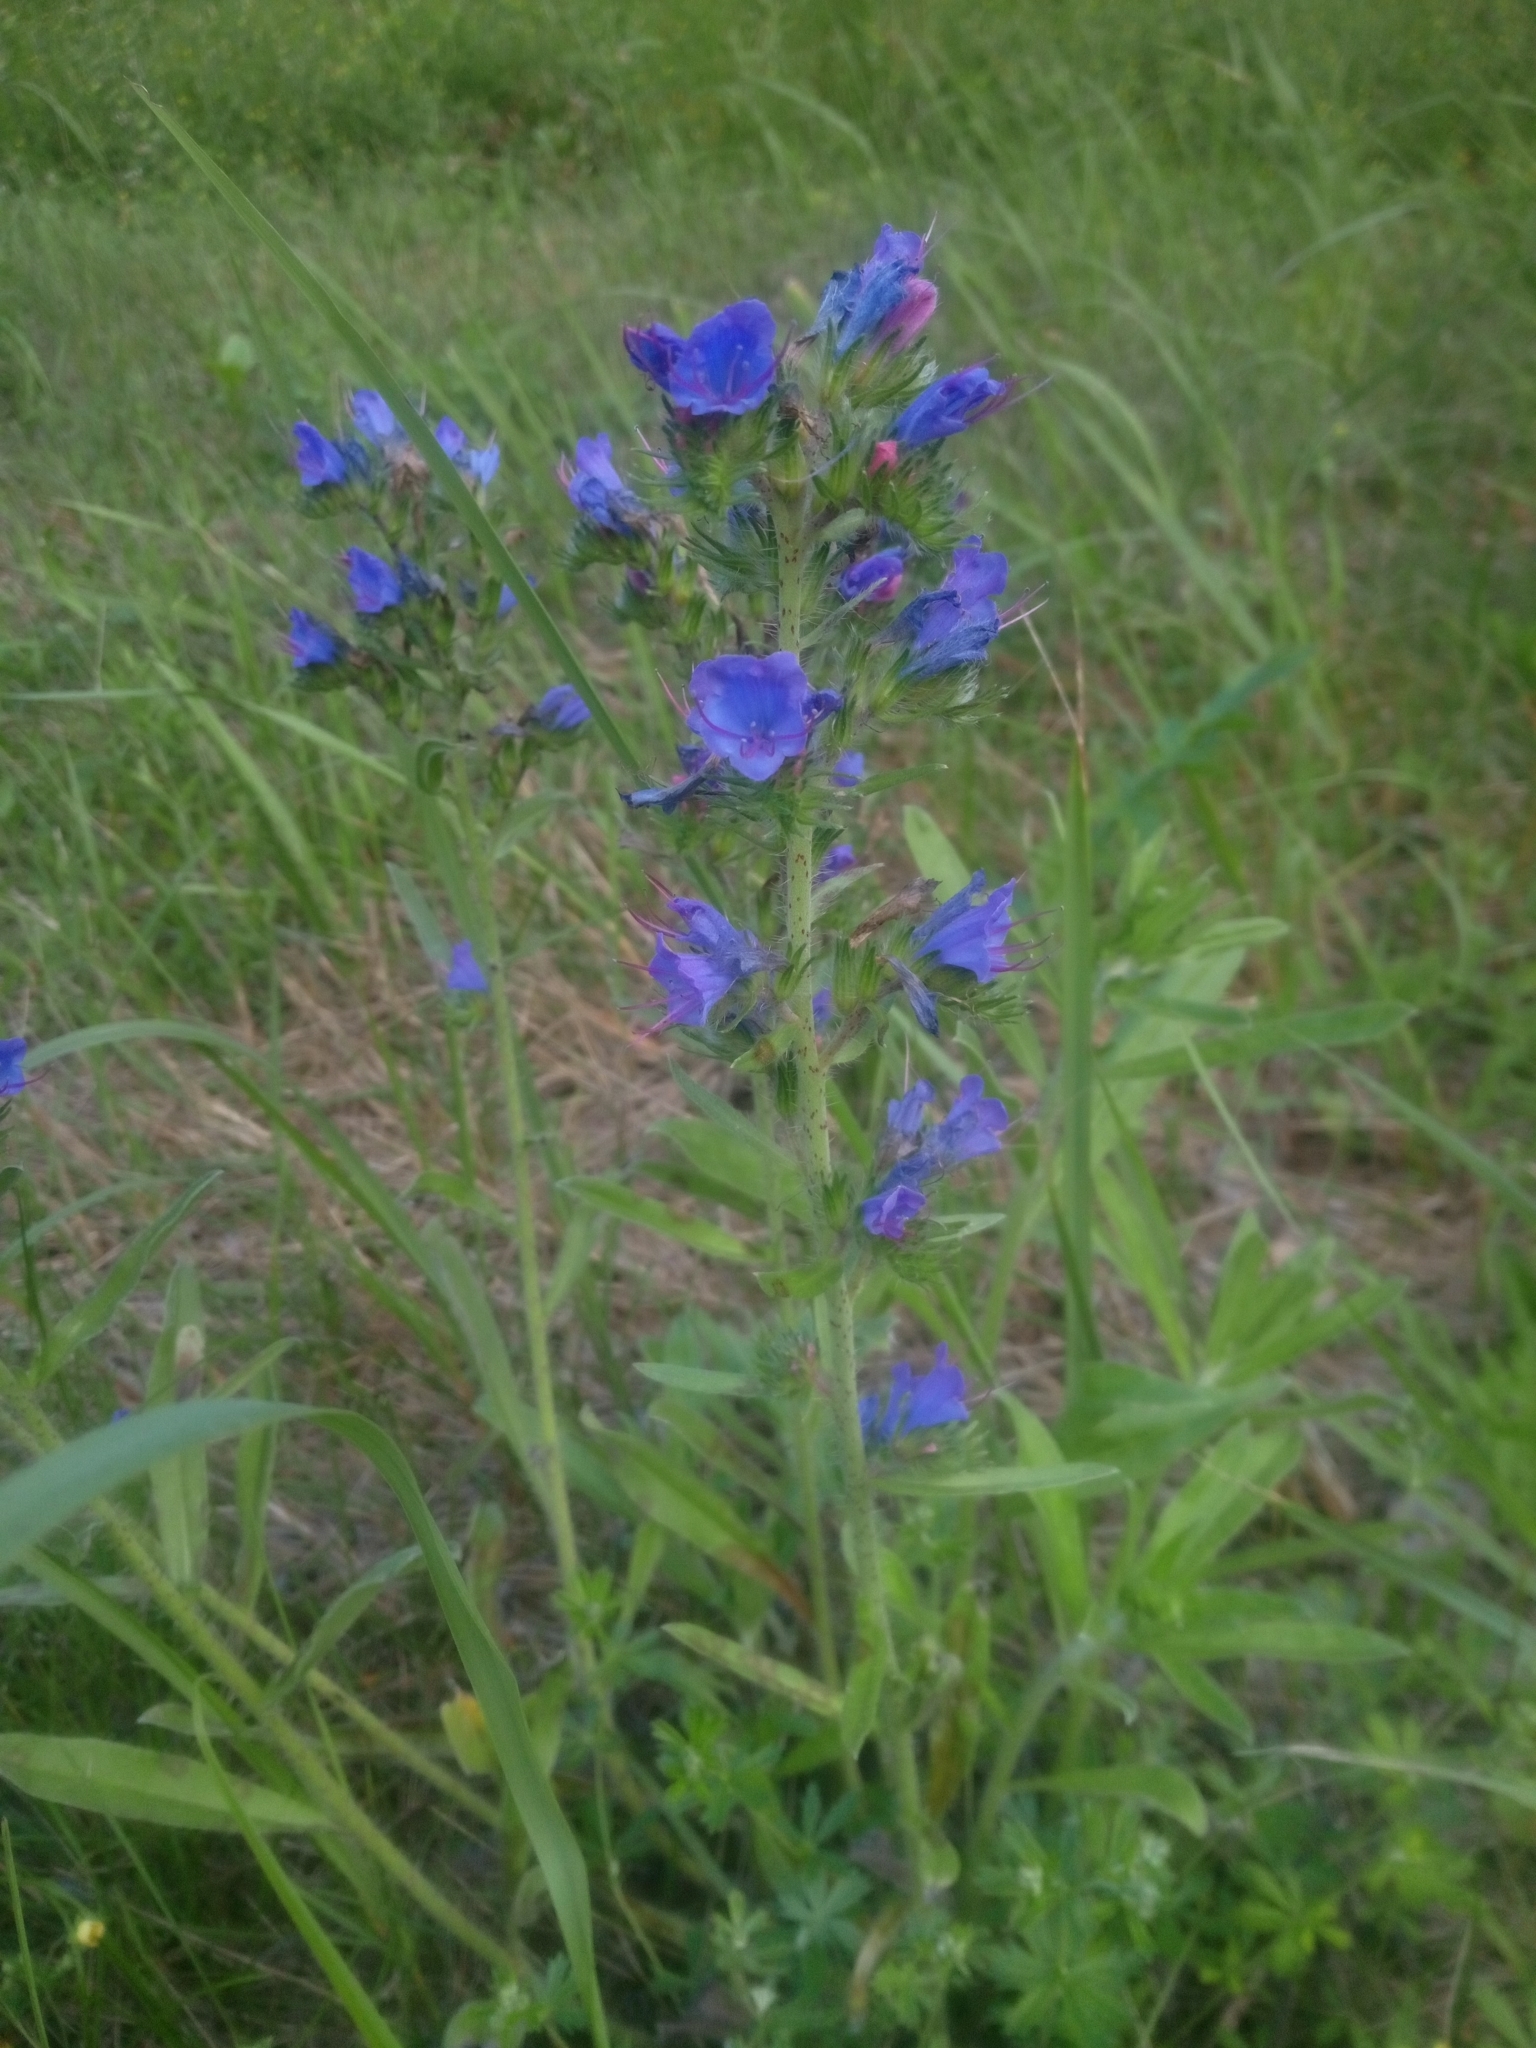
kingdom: Plantae
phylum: Tracheophyta
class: Magnoliopsida
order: Boraginales
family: Boraginaceae
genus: Echium
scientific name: Echium vulgare
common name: Common viper's bugloss
